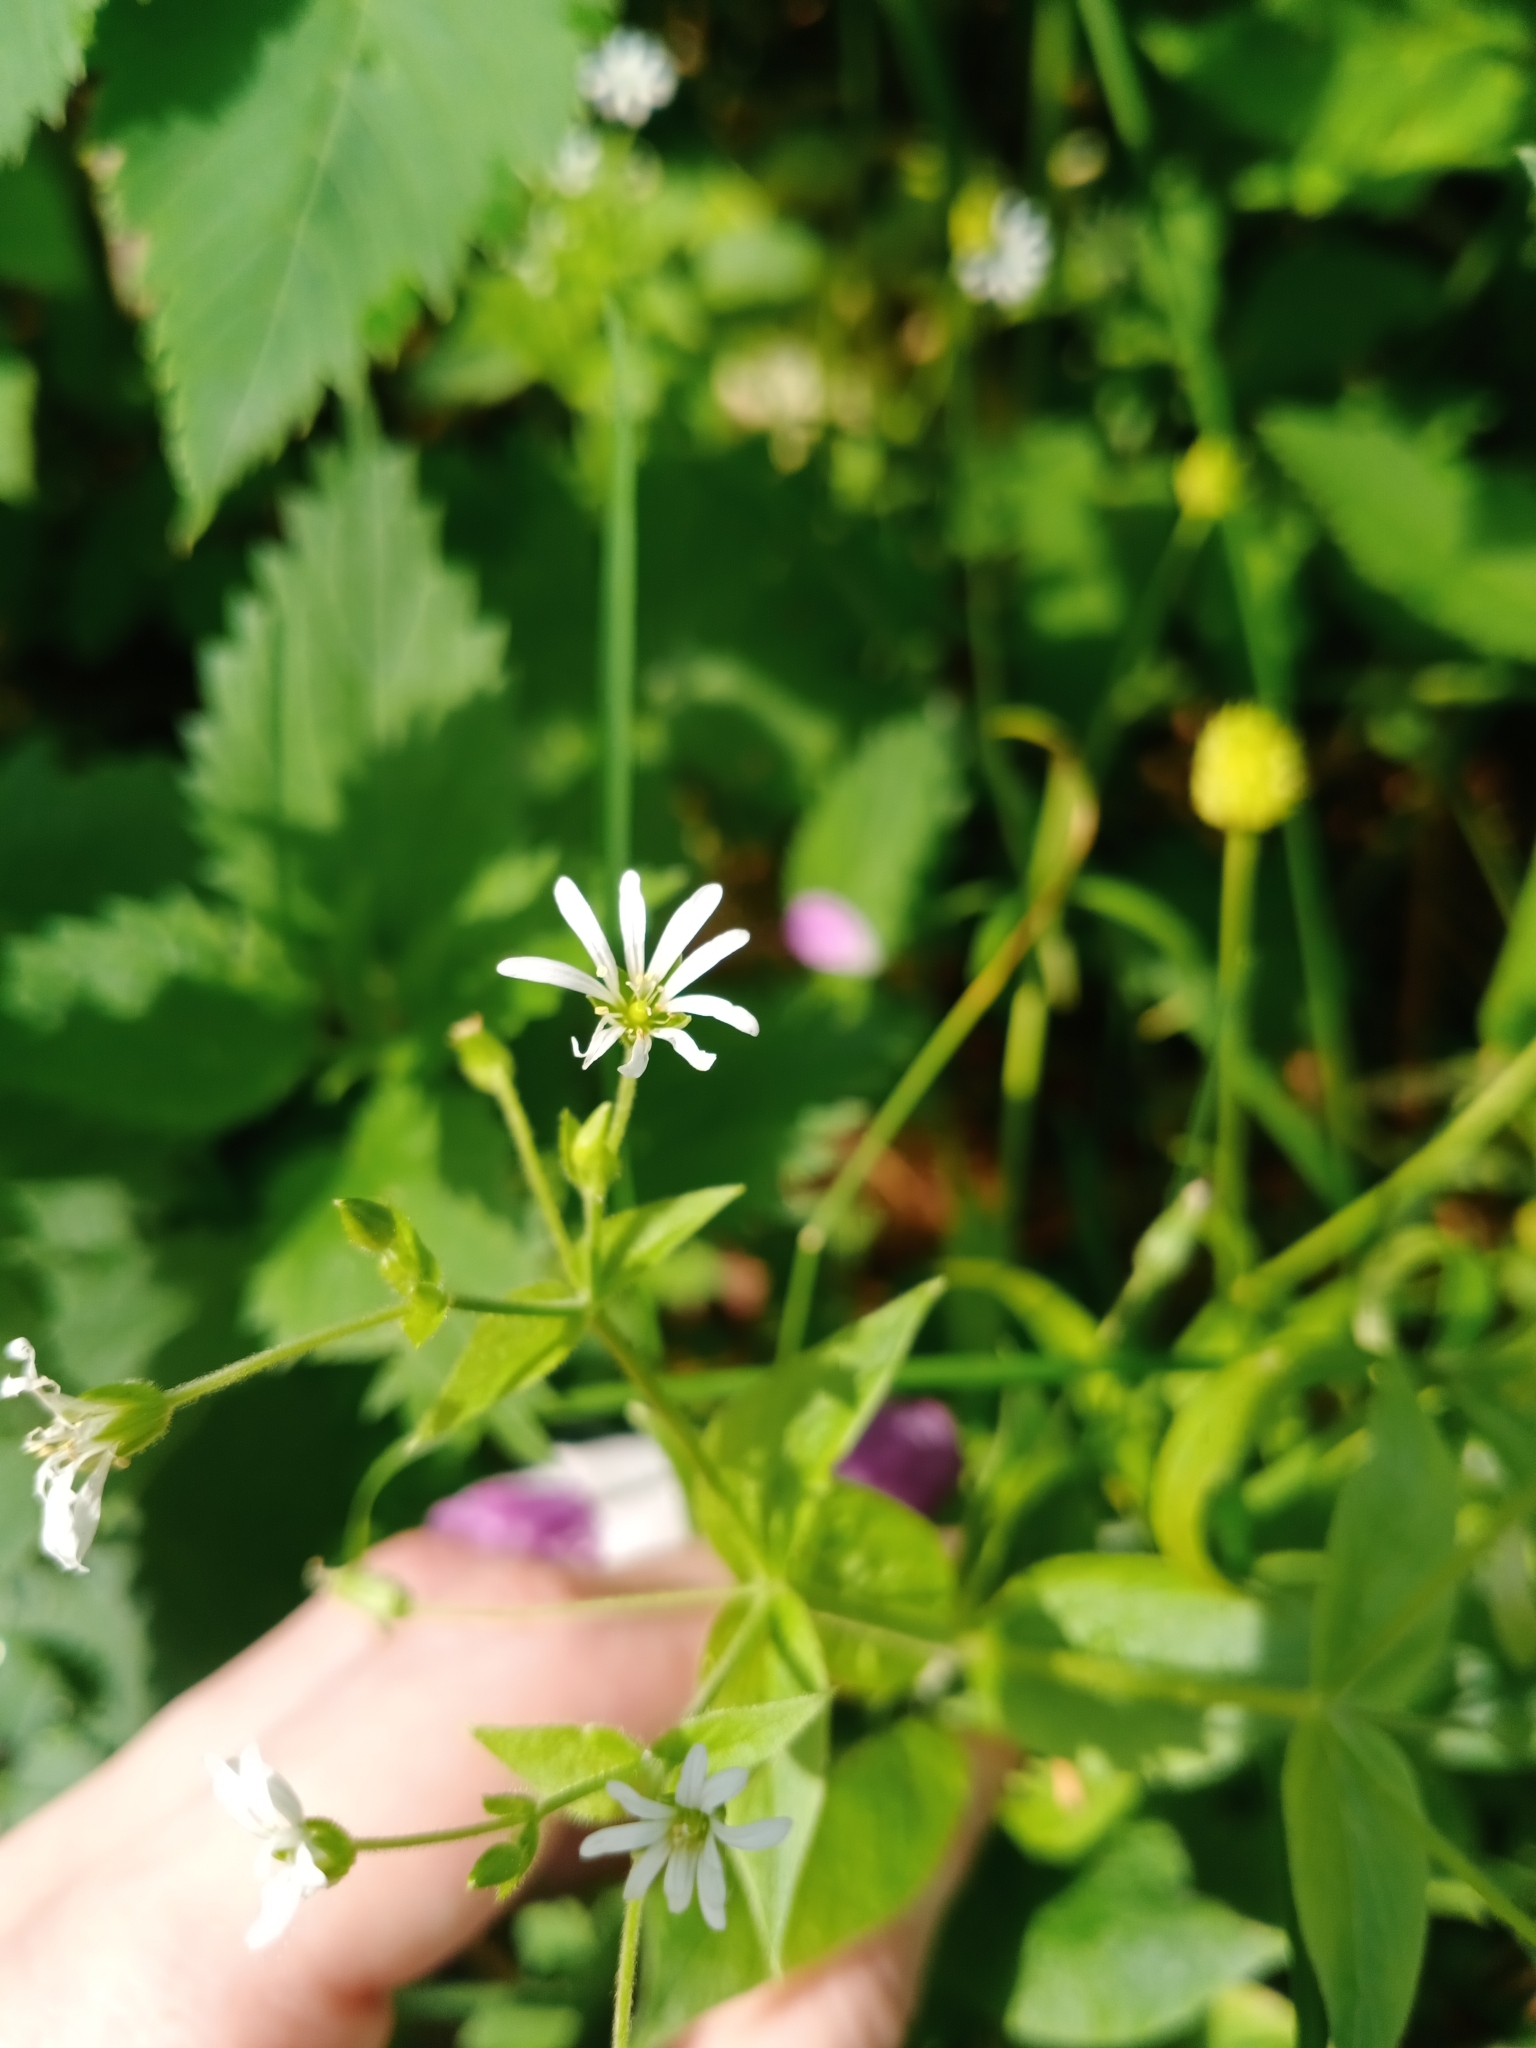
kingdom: Plantae
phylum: Tracheophyta
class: Magnoliopsida
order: Caryophyllales
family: Caryophyllaceae
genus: Stellaria
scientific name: Stellaria nemorum
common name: Wood stitchwort
